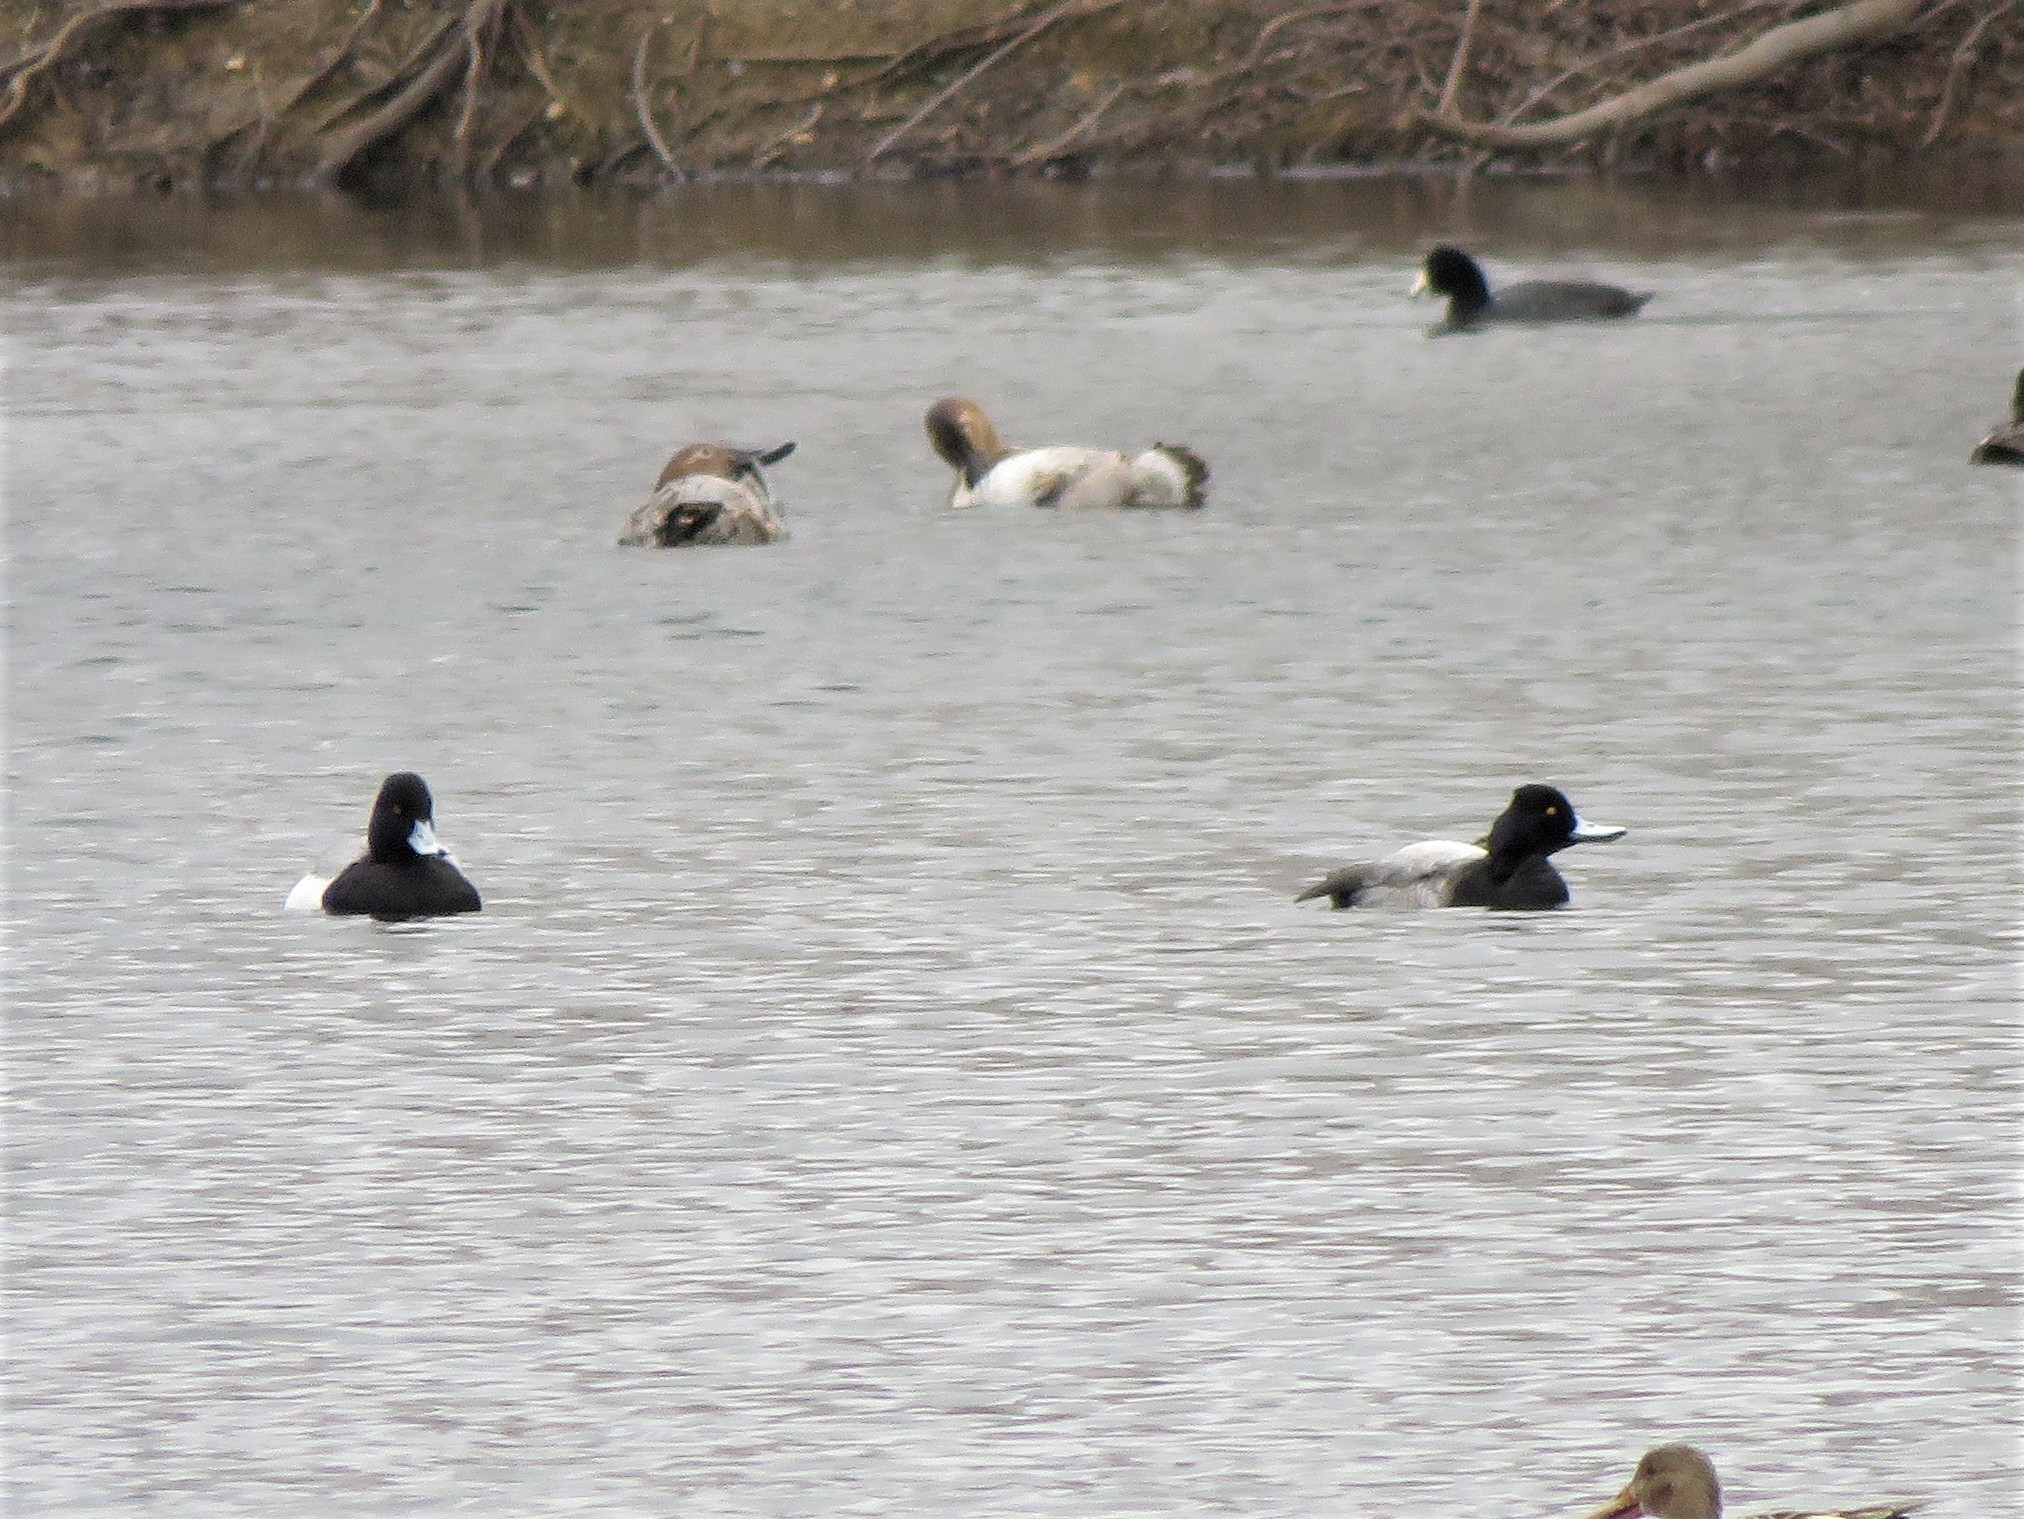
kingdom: Animalia
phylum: Chordata
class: Aves
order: Anseriformes
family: Anatidae
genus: Aythya
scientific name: Aythya affinis
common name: Lesser scaup
